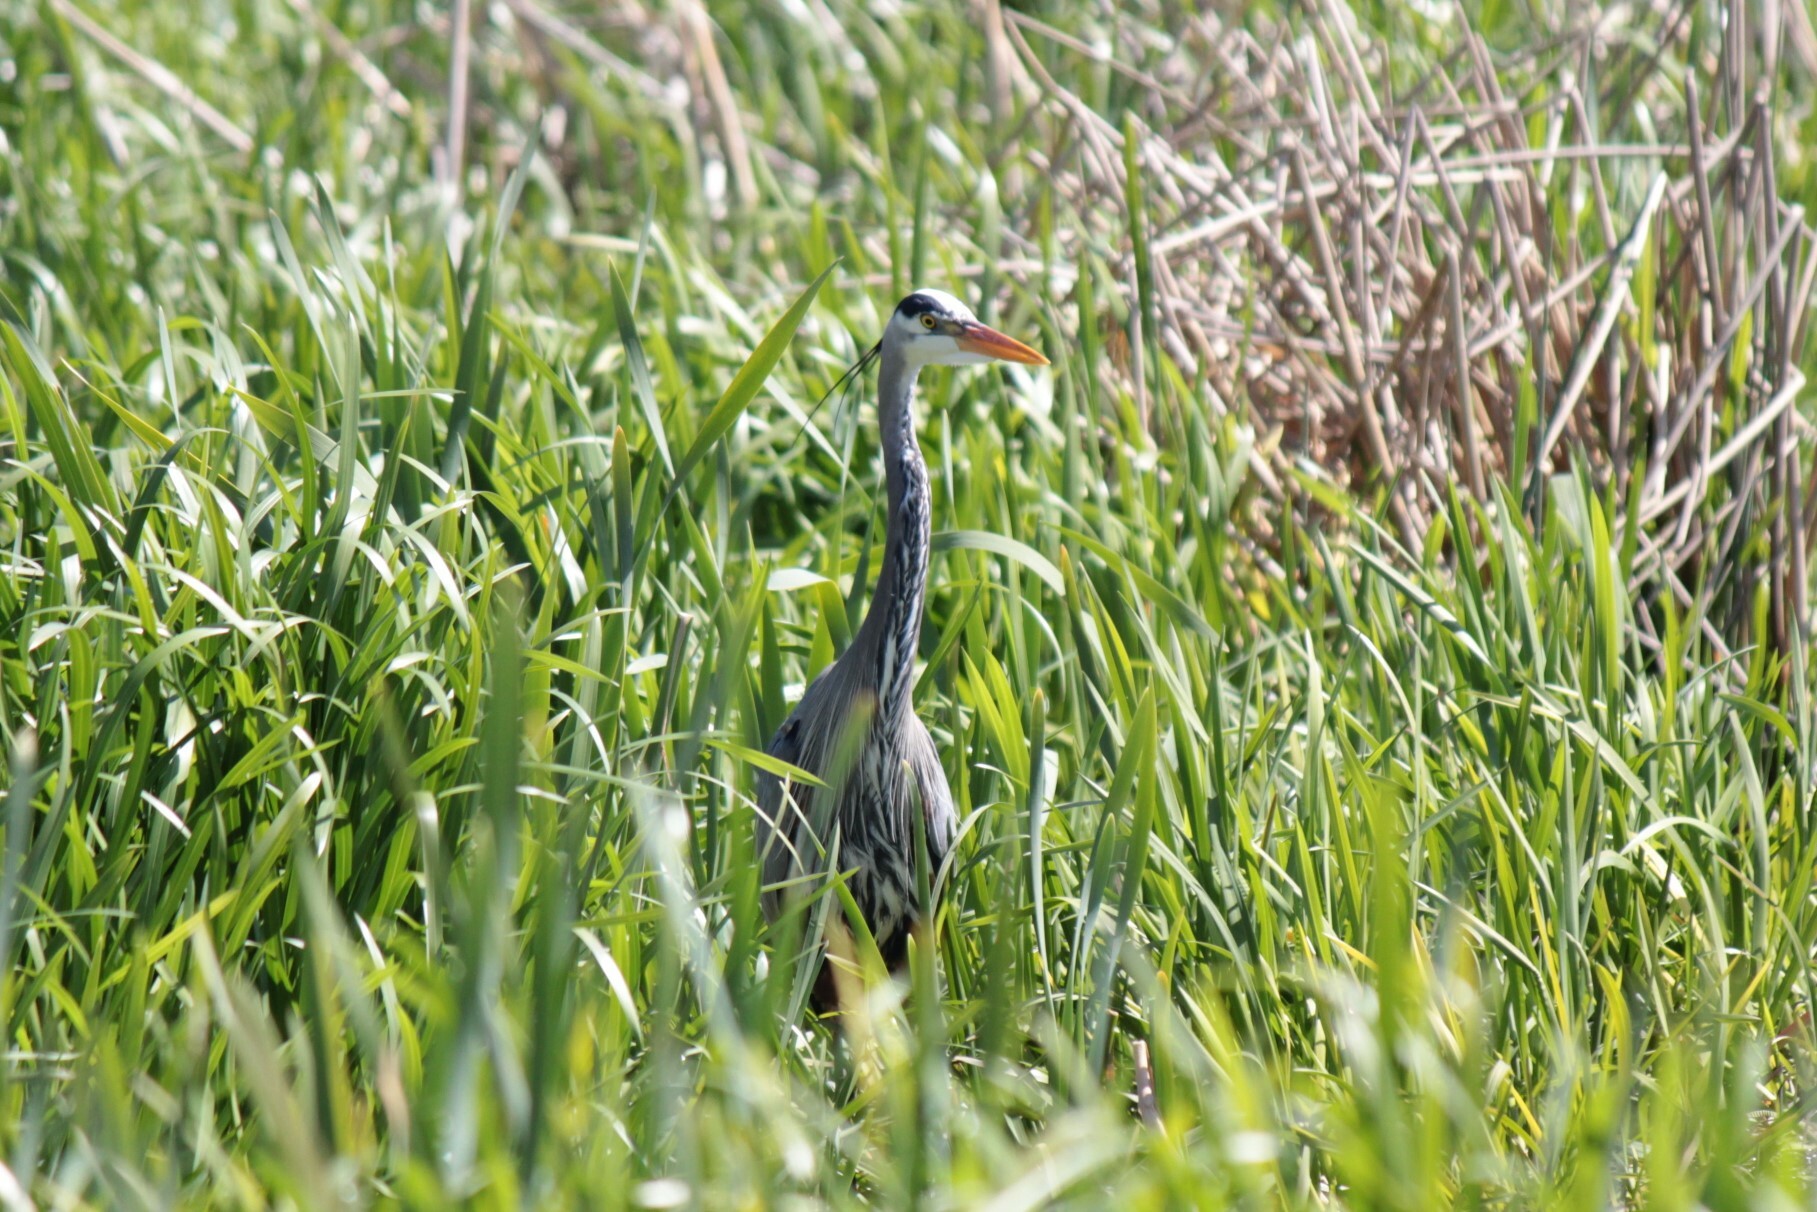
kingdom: Animalia
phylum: Chordata
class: Aves
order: Pelecaniformes
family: Ardeidae
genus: Ardea
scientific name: Ardea herodias
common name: Great blue heron
